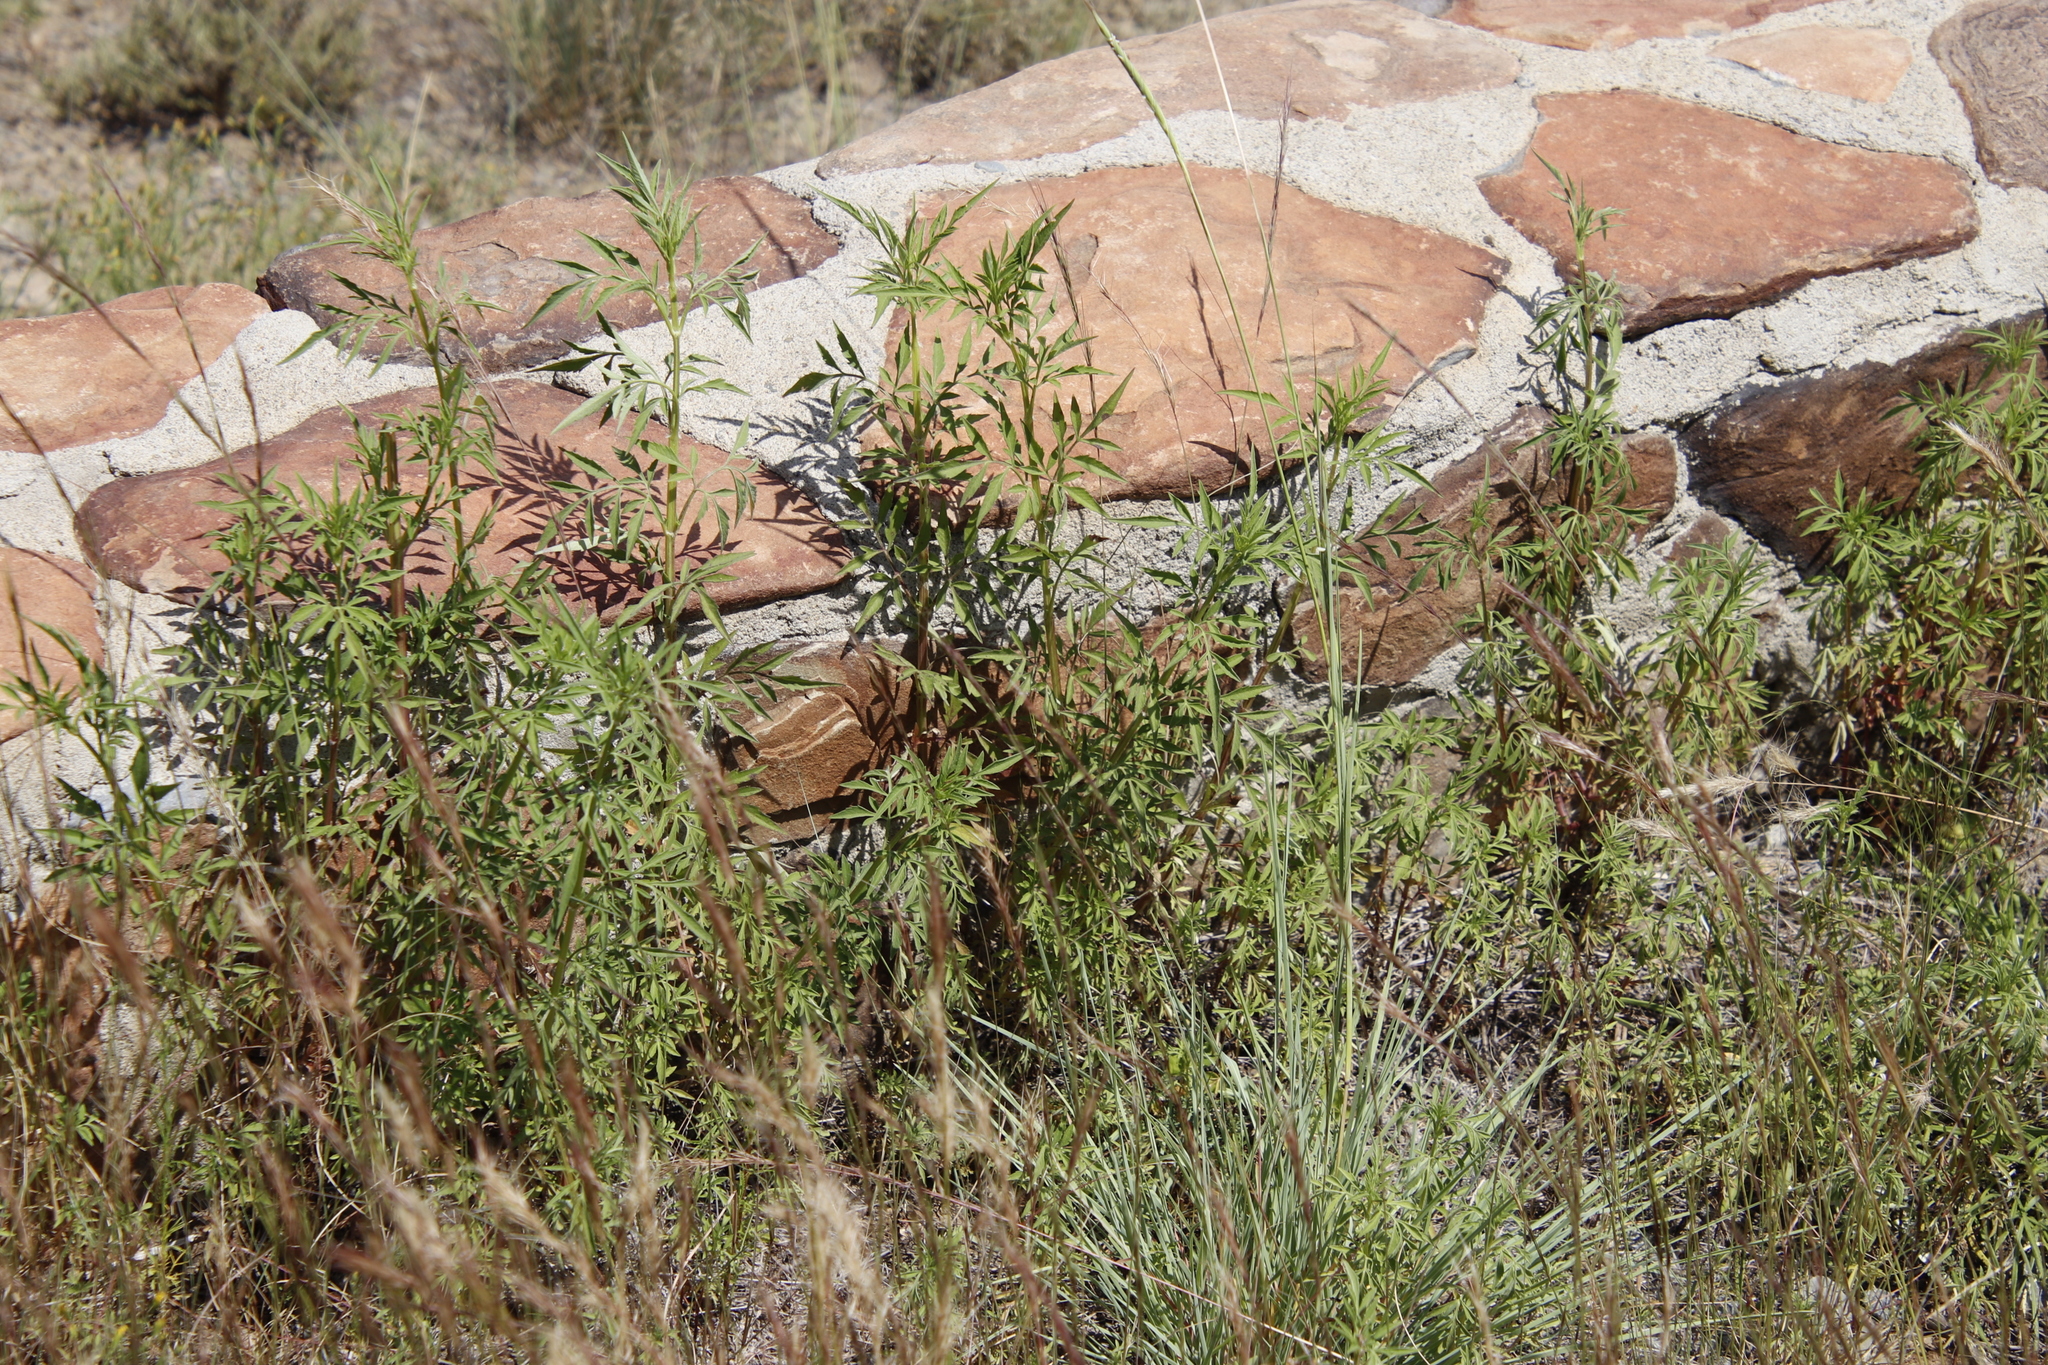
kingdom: Plantae
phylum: Tracheophyta
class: Magnoliopsida
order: Asterales
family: Asteraceae
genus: Tagetes
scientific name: Tagetes minuta
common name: Muster john henry
